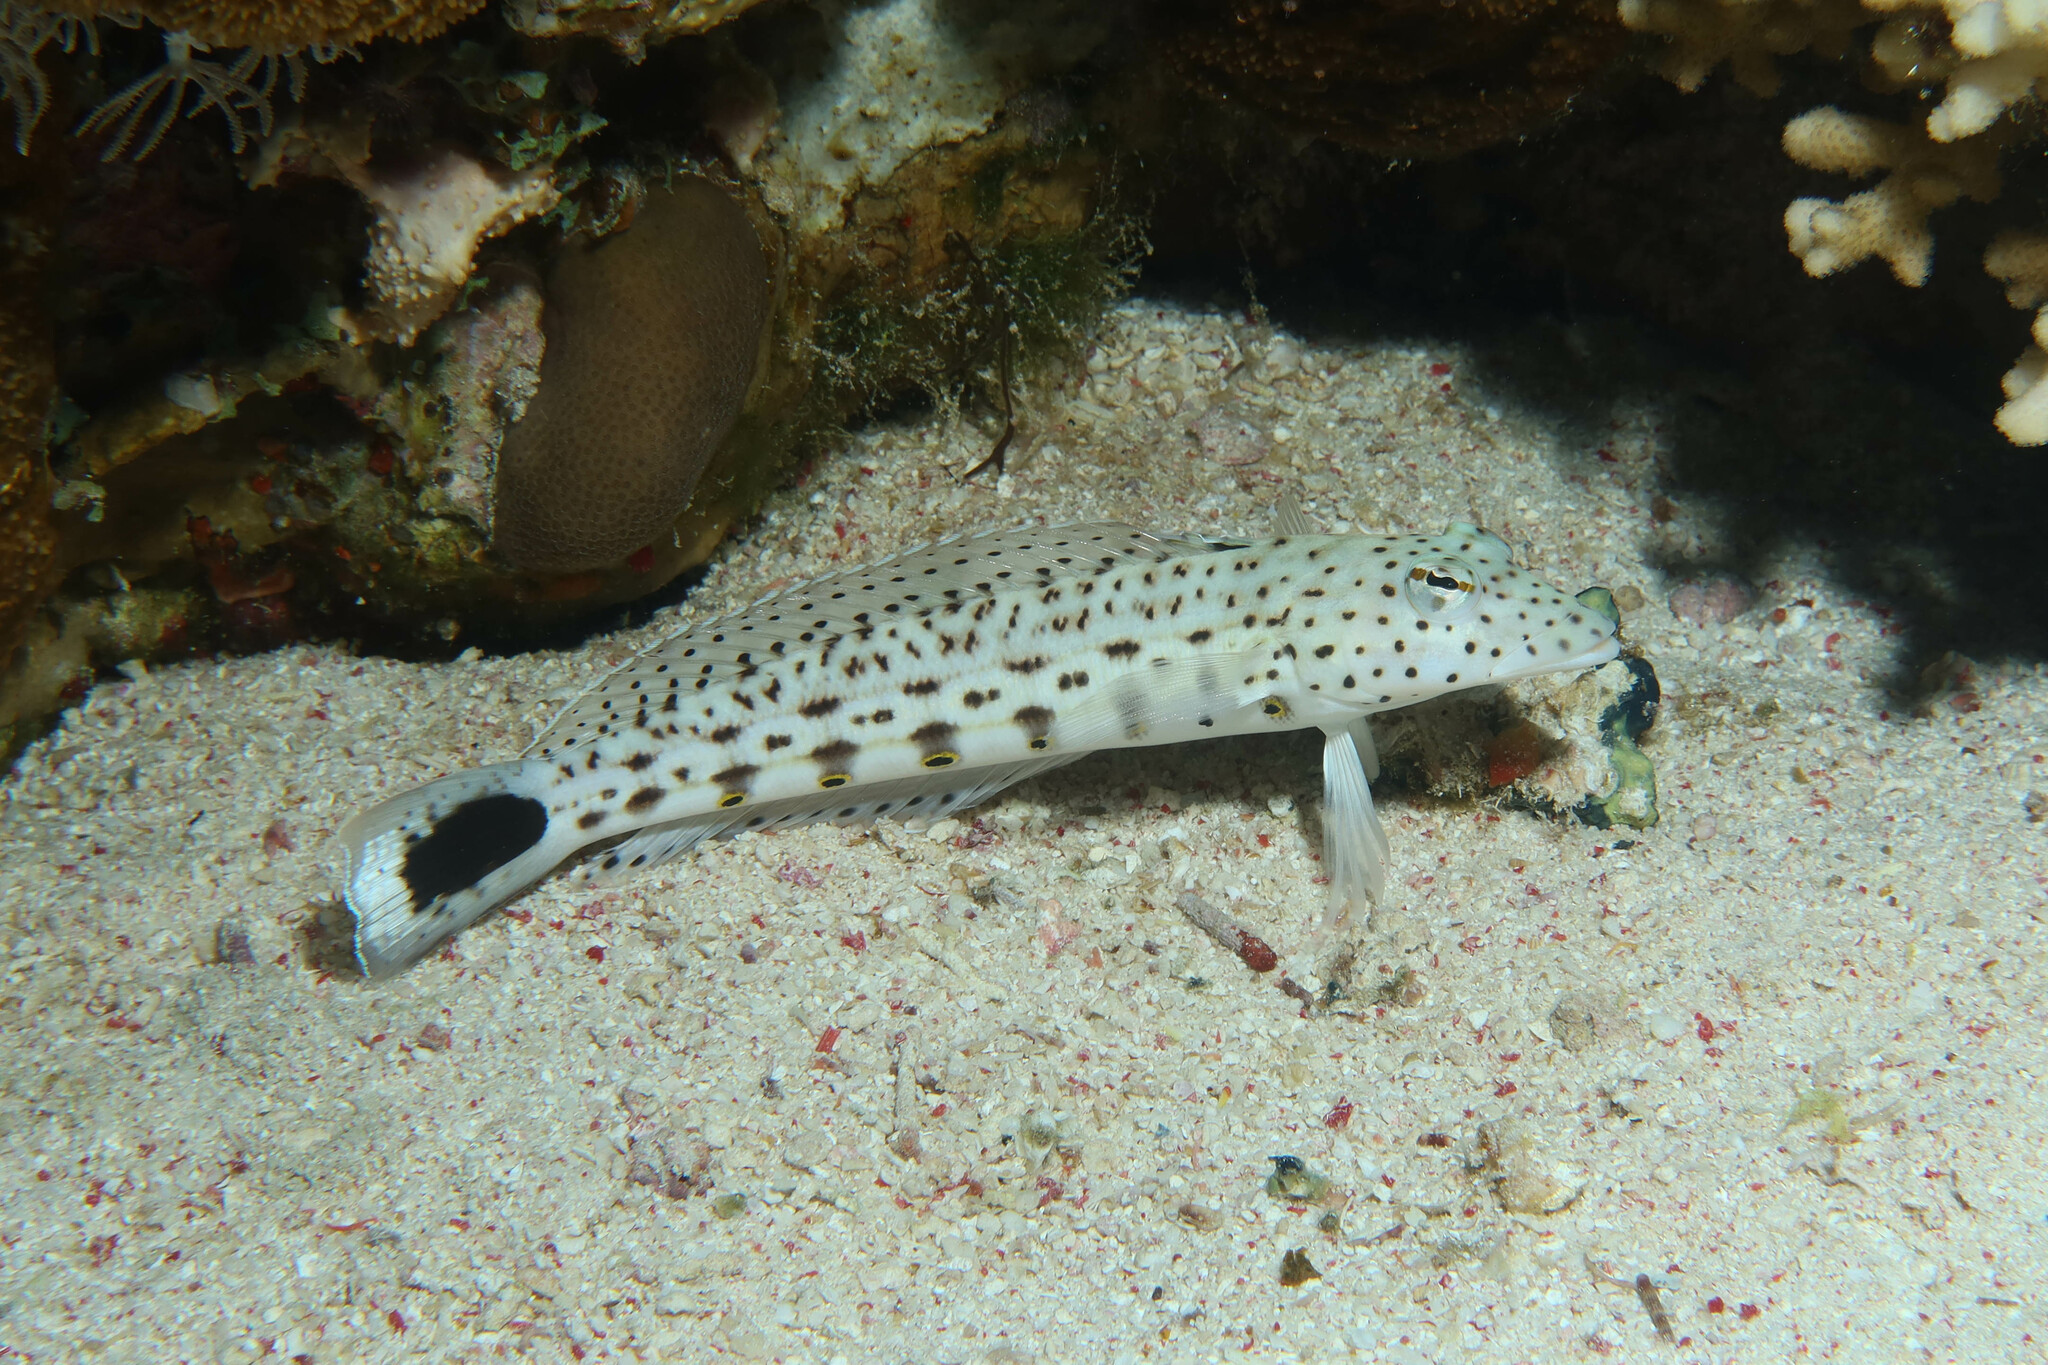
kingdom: Animalia
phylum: Chordata
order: Perciformes
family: Pinguipedidae
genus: Parapercis
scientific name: Parapercis hexophtalma
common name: Speckled sandperch
